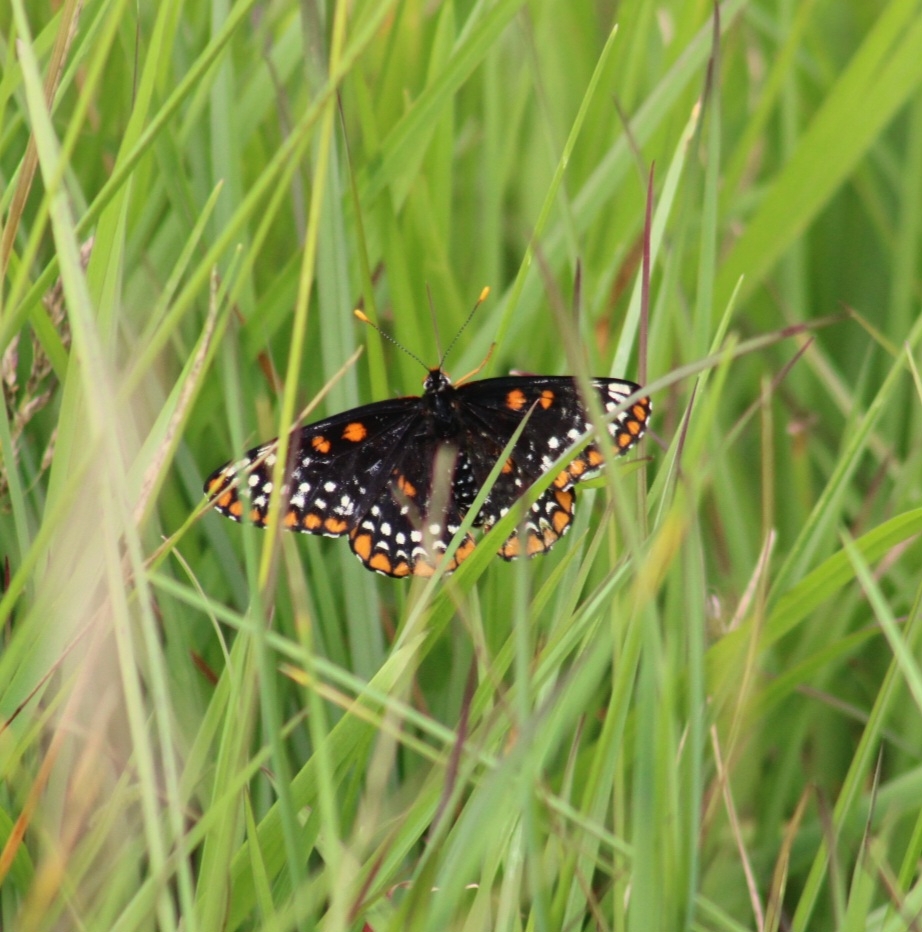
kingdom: Animalia
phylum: Arthropoda
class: Insecta
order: Lepidoptera
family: Nymphalidae
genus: Euphydryas
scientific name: Euphydryas phaeton
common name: Baltimore checkerspot
